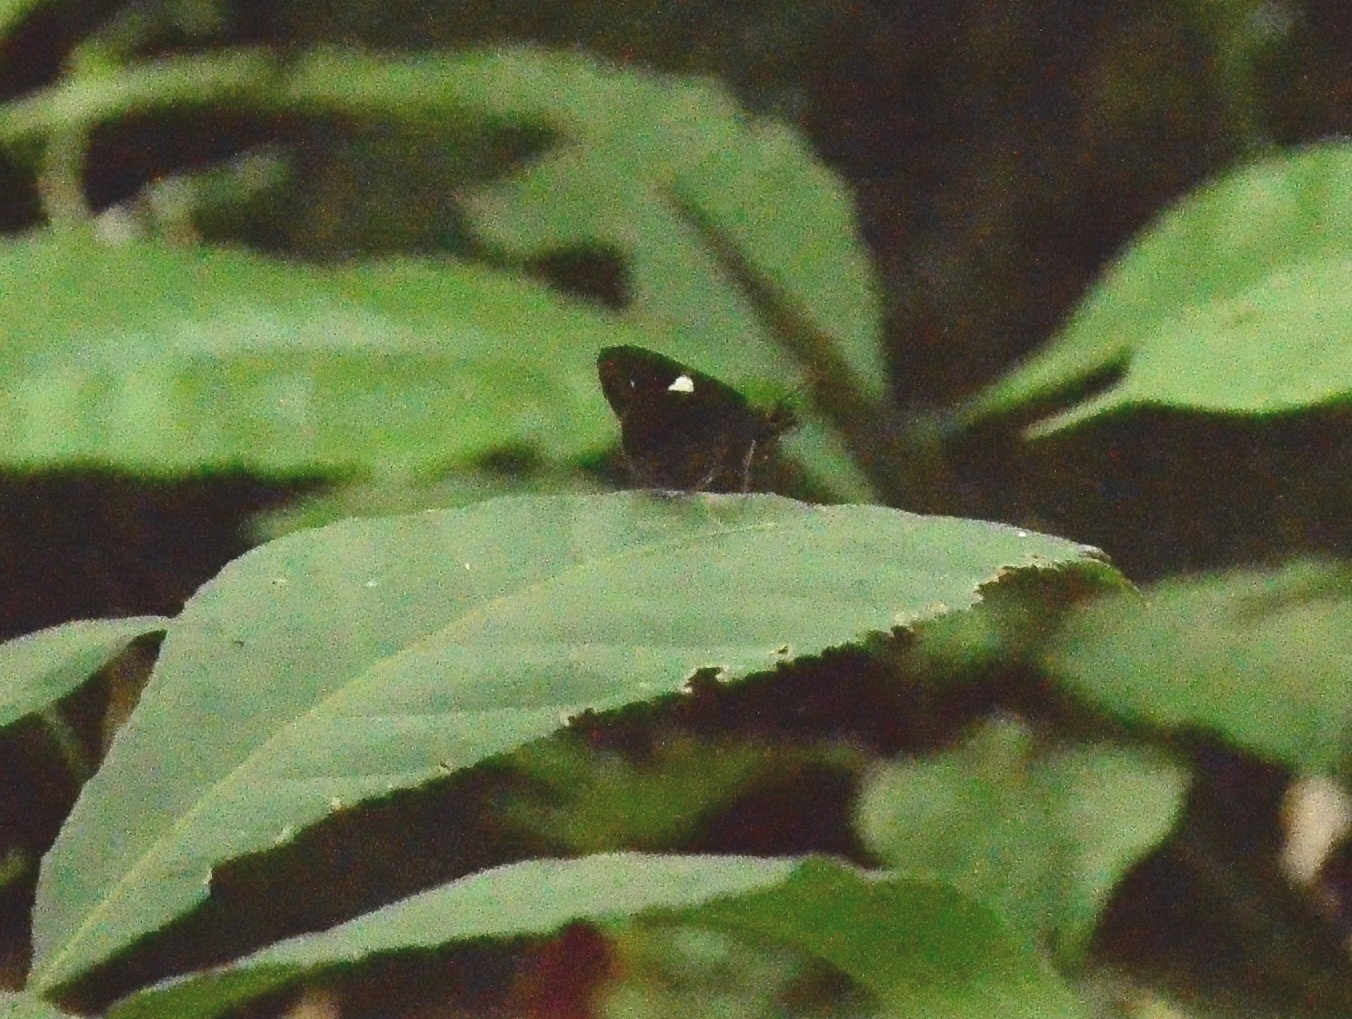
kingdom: Animalia
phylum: Arthropoda
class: Insecta
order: Lepidoptera
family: Hesperiidae
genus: Notocrypta
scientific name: Notocrypta paralysos
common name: Common banded demon
